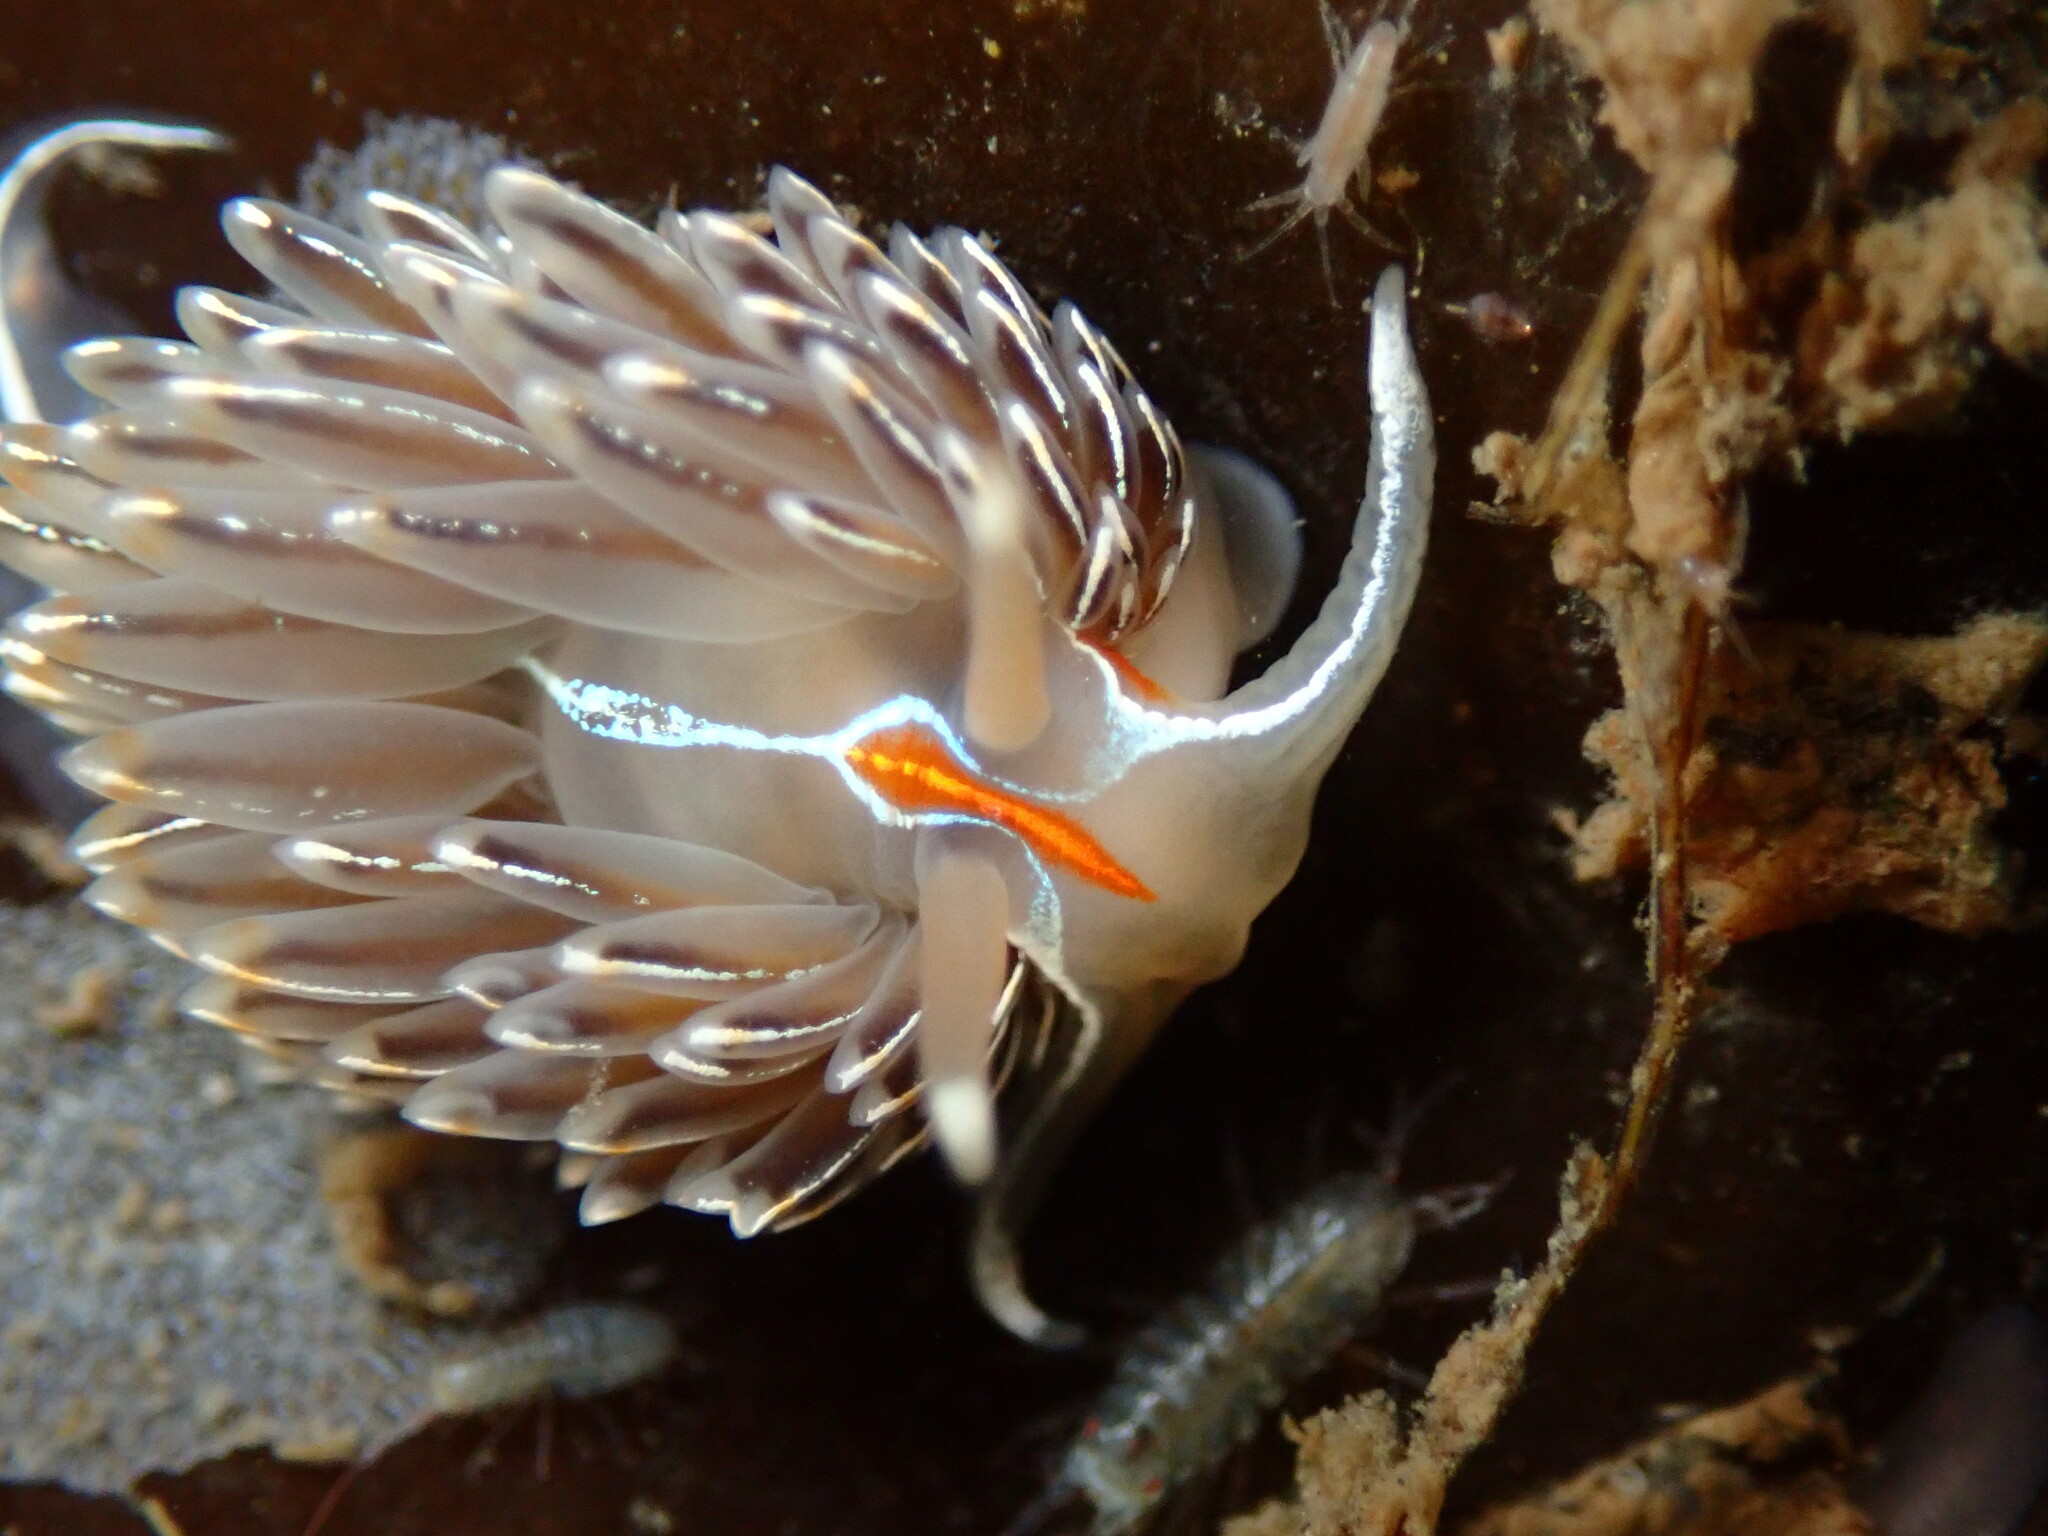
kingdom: Animalia
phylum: Mollusca
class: Gastropoda
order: Nudibranchia
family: Myrrhinidae
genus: Hermissenda
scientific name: Hermissenda crassicornis
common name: Hermissenda
